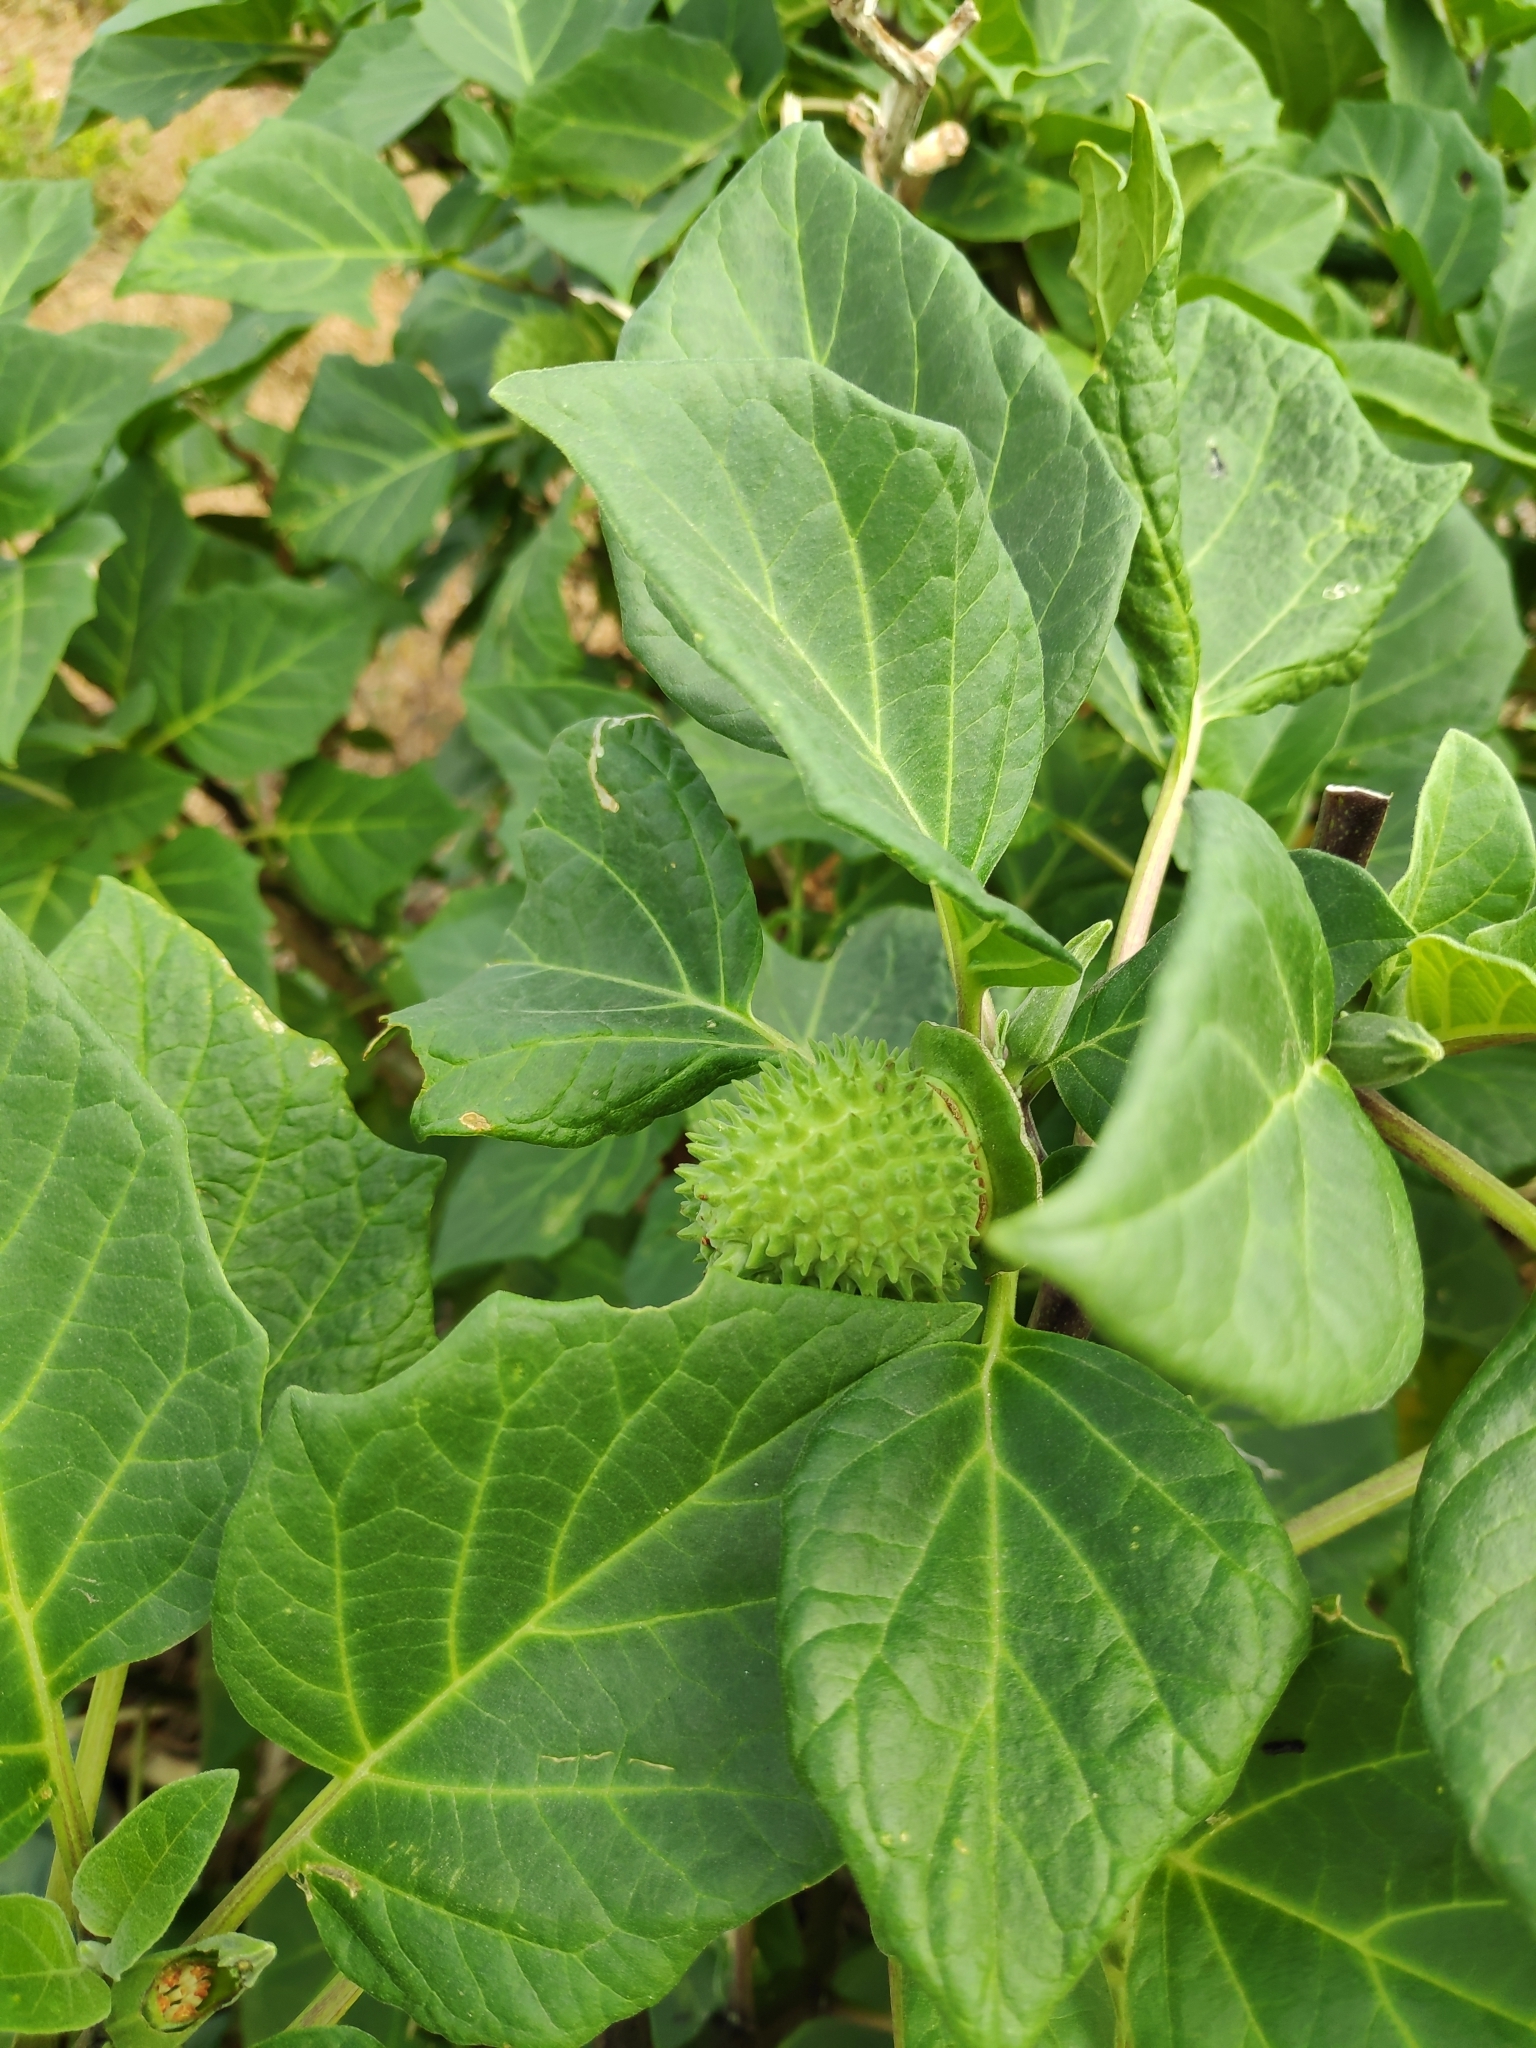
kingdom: Plantae
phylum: Tracheophyta
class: Magnoliopsida
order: Solanales
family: Solanaceae
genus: Datura
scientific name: Datura metel
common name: Jimsonweed
